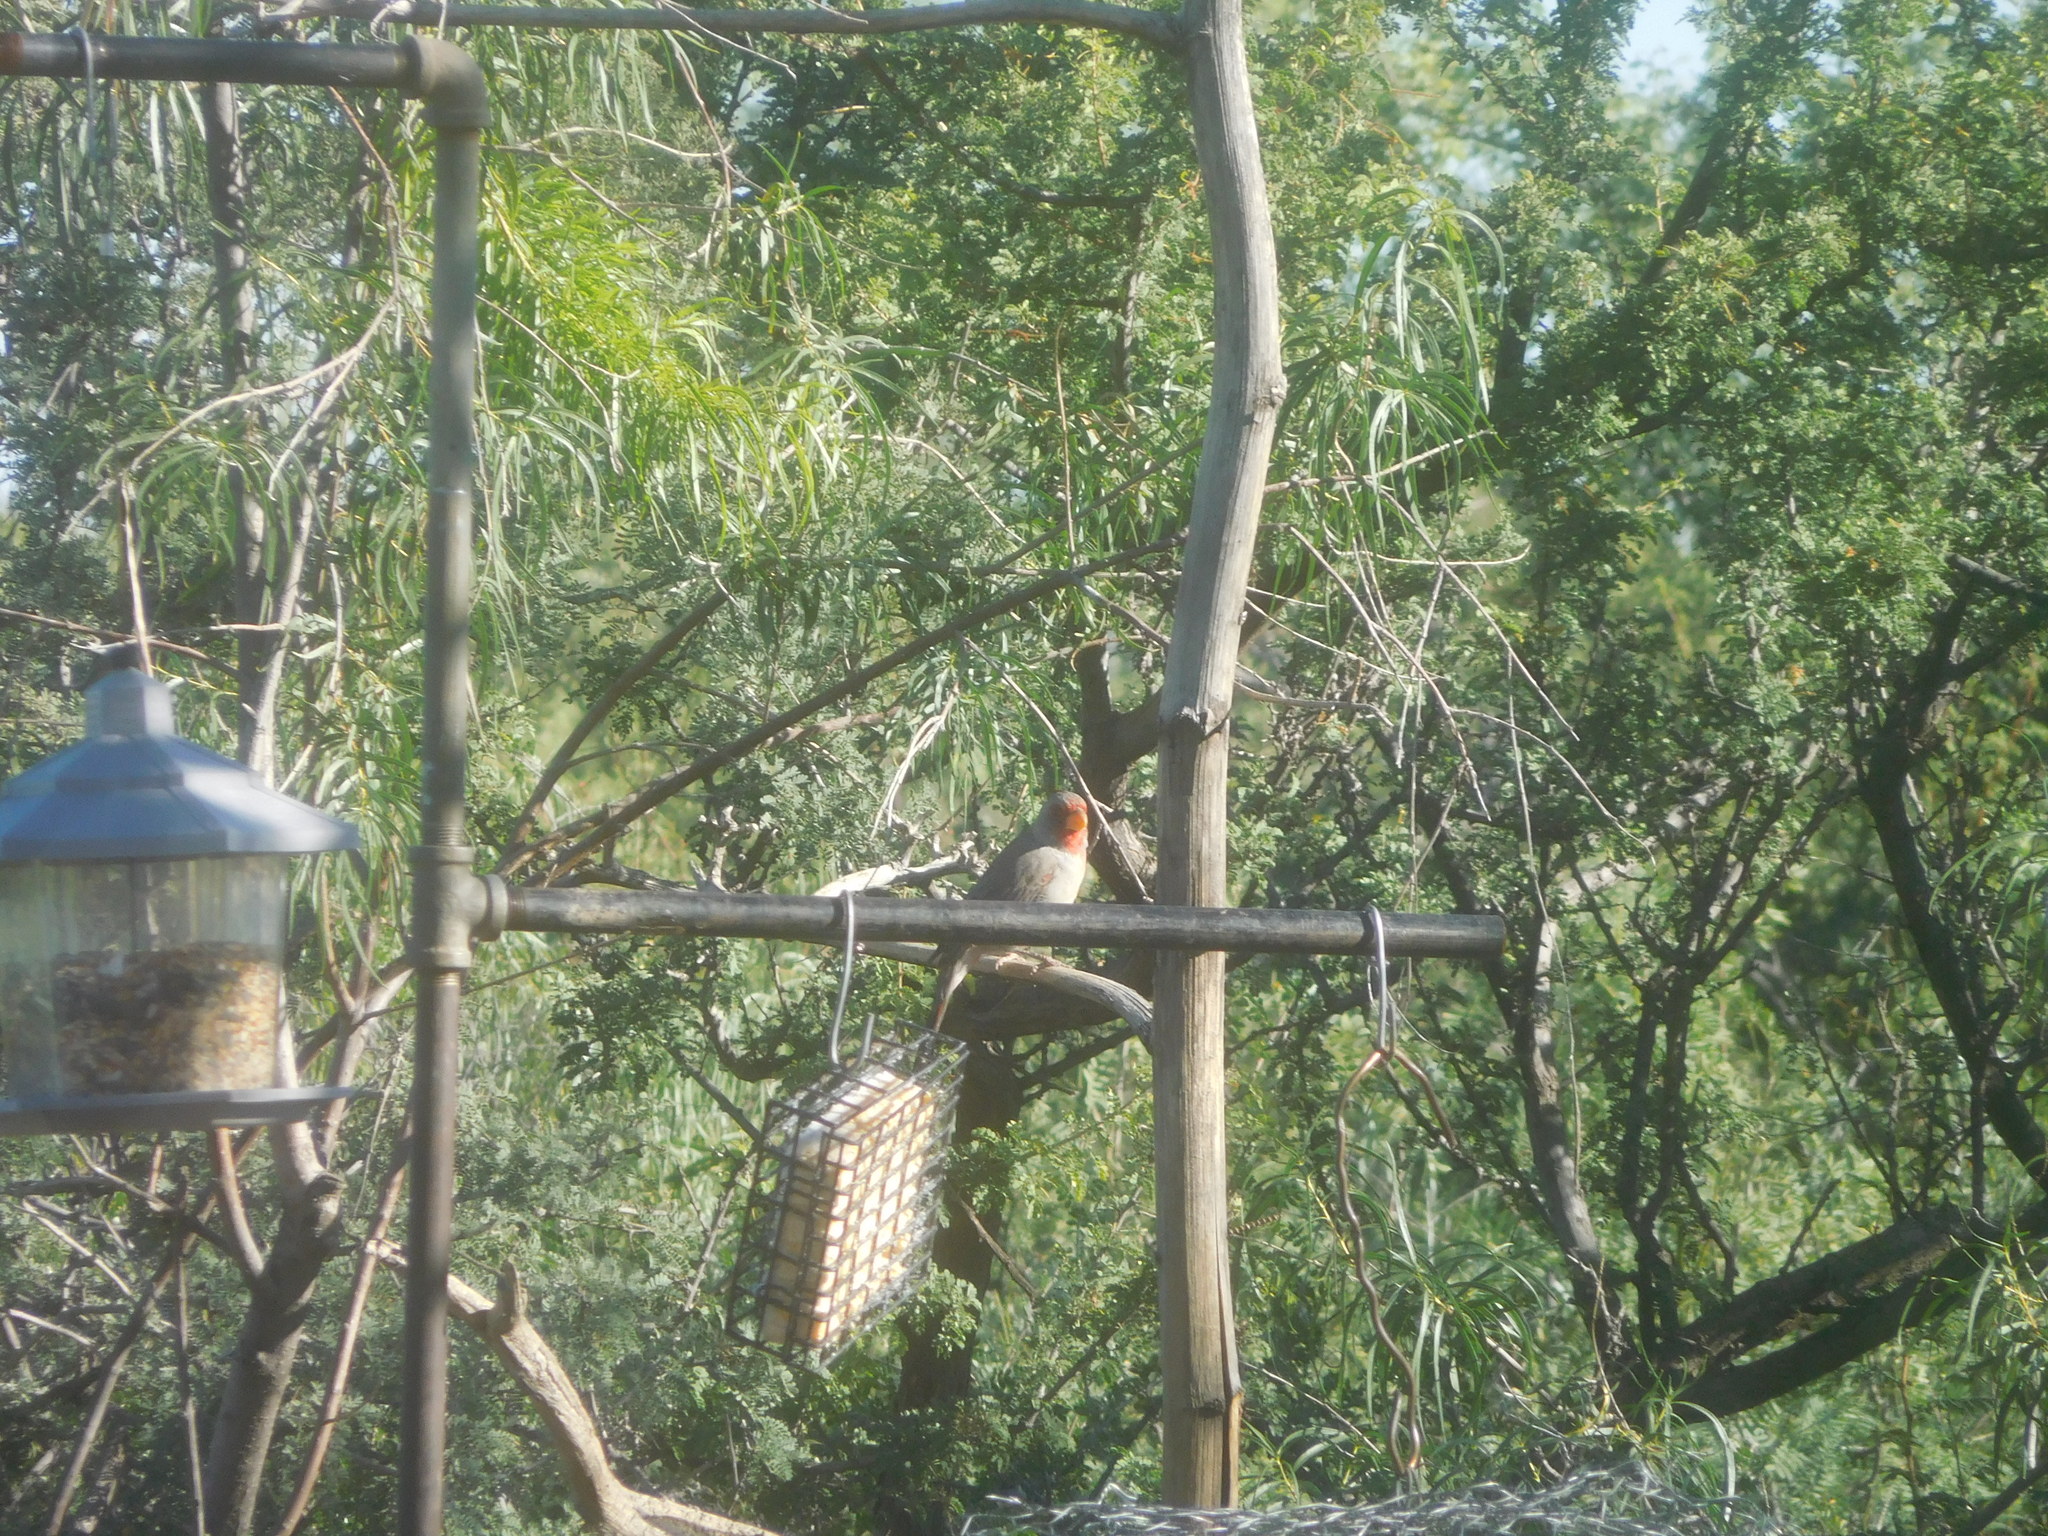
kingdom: Animalia
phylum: Chordata
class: Aves
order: Passeriformes
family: Cardinalidae
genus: Cardinalis
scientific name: Cardinalis sinuatus
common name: Pyrrhuloxia
